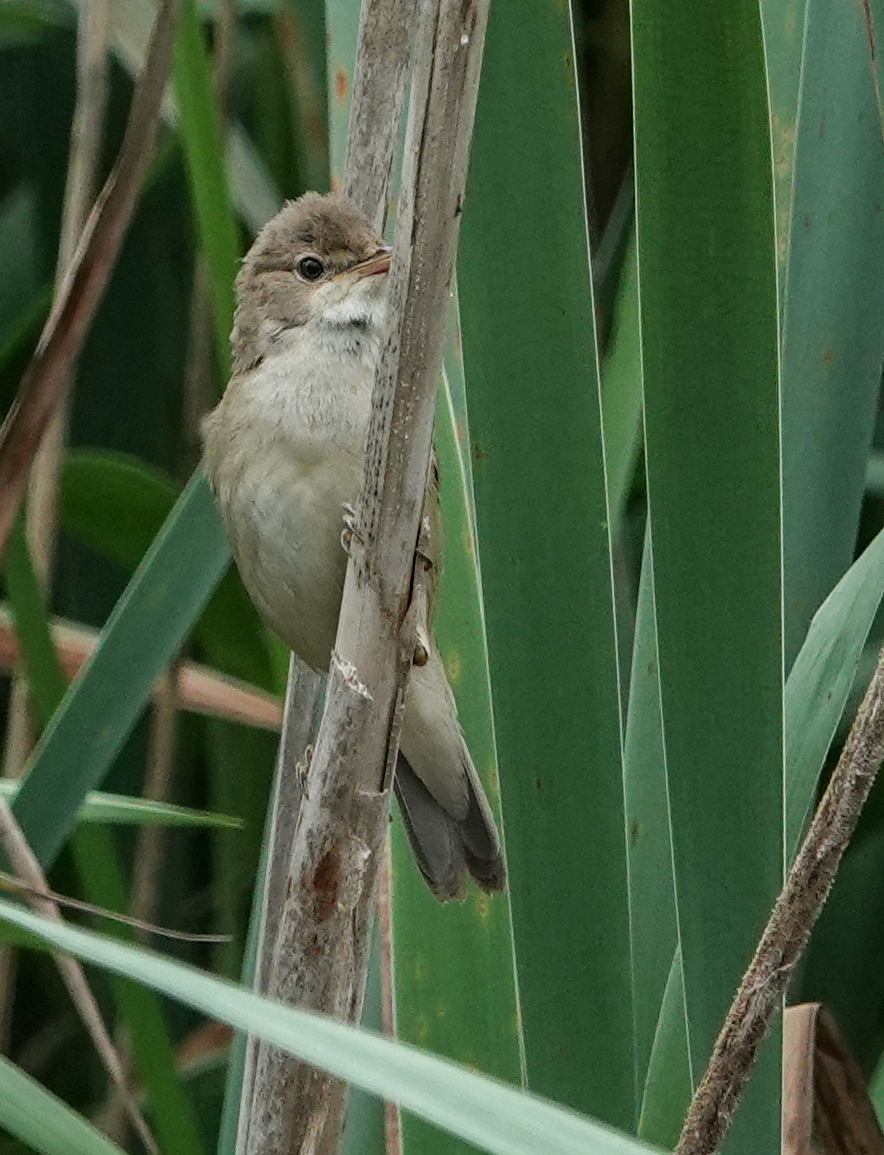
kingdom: Animalia
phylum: Chordata
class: Aves
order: Passeriformes
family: Acrocephalidae
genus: Acrocephalus
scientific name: Acrocephalus scirpaceus
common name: Eurasian reed warbler
